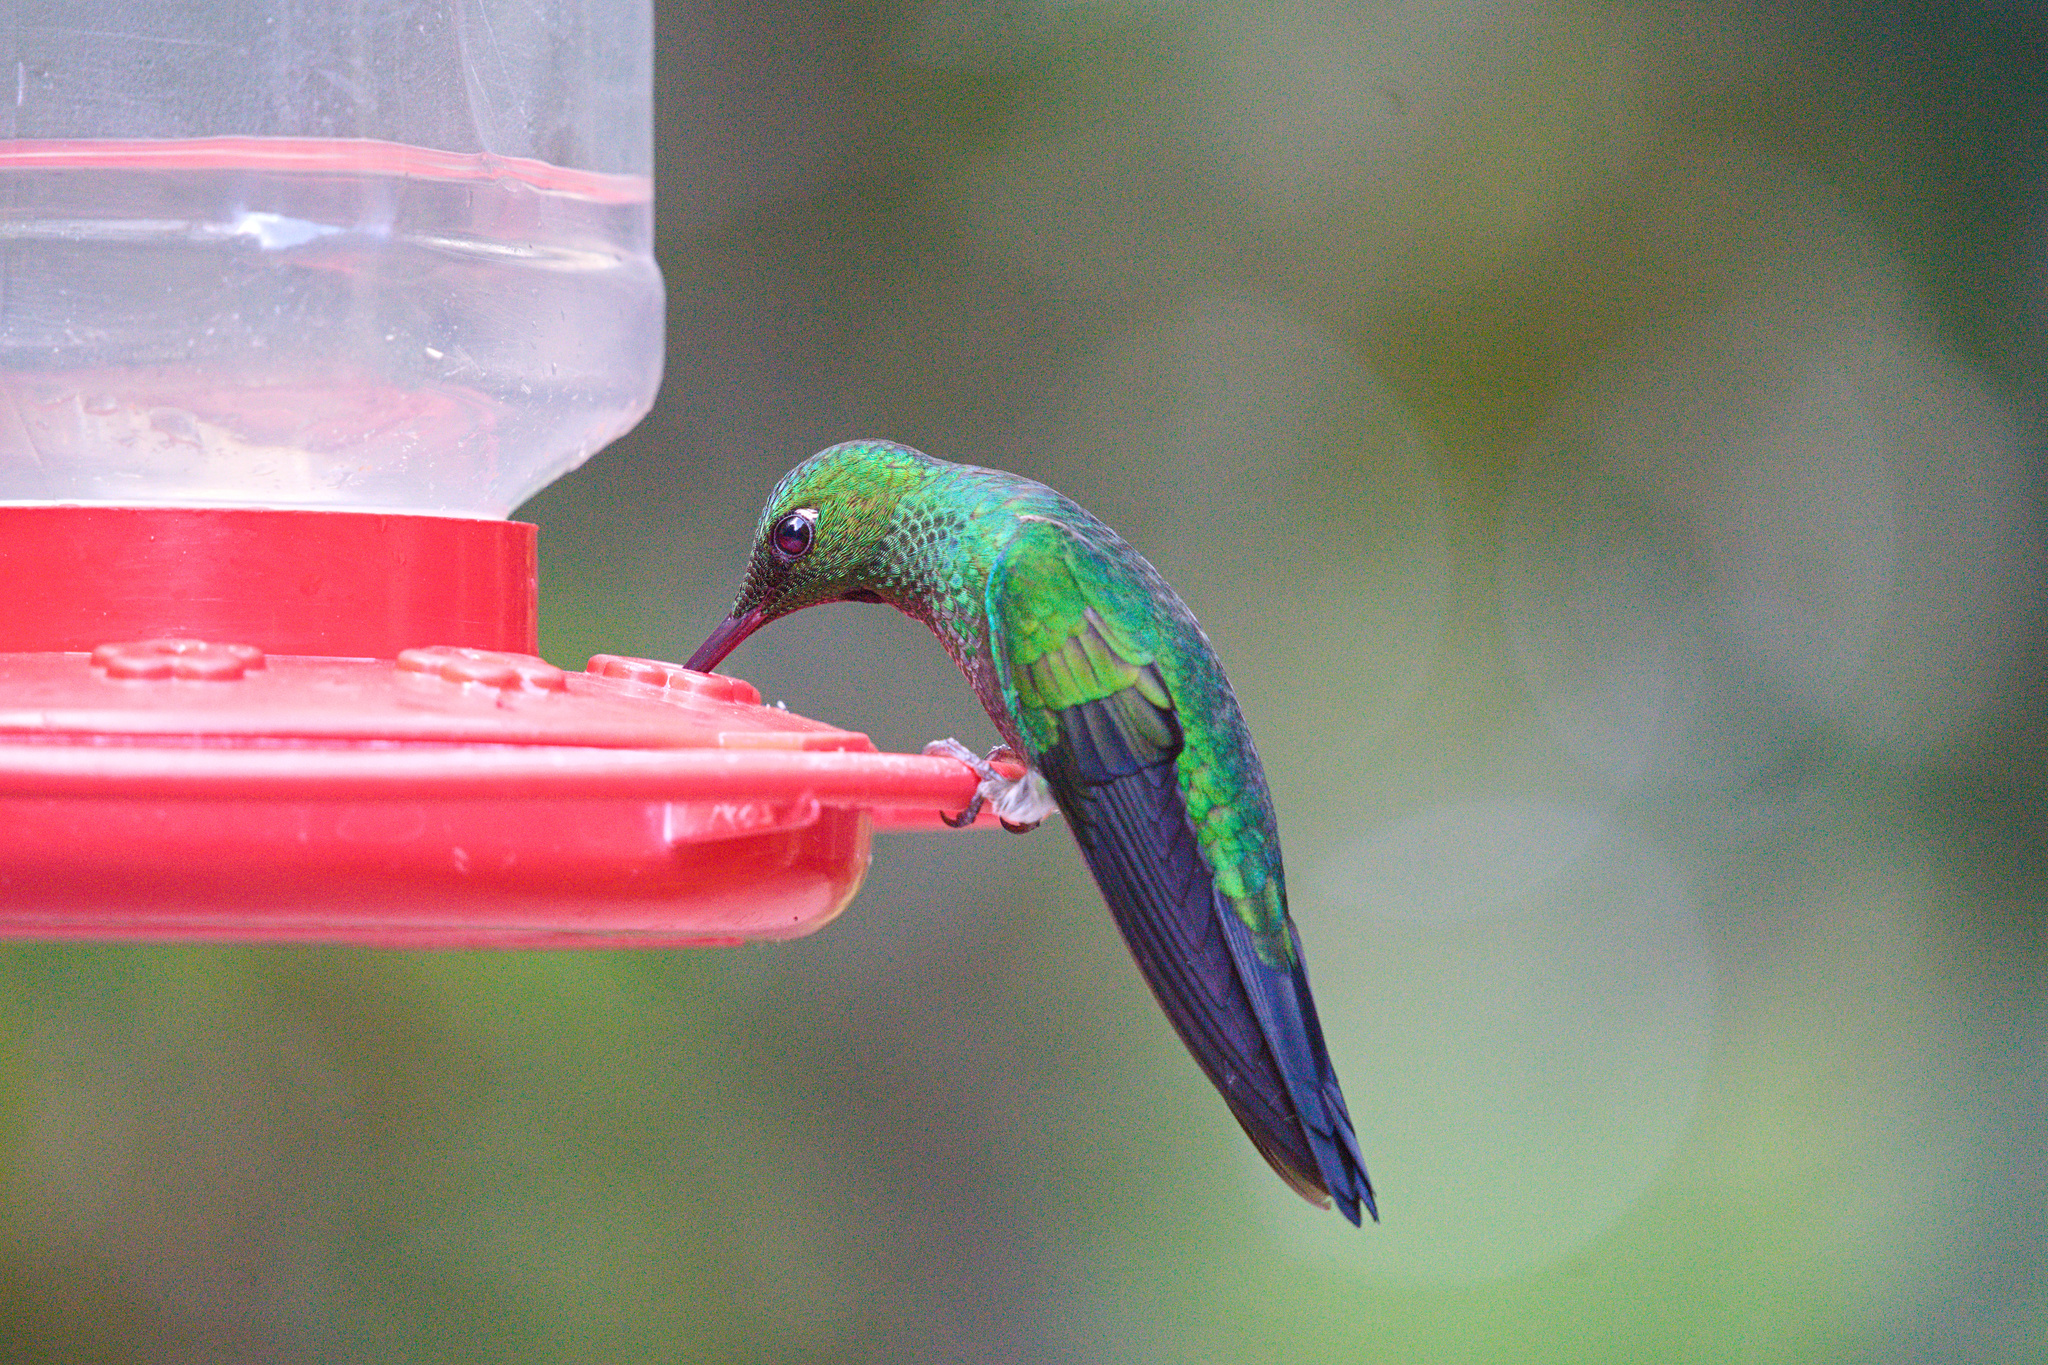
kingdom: Animalia
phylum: Chordata
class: Aves
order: Apodiformes
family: Trochilidae
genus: Heliodoxa
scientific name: Heliodoxa jacula
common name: Green-crowned brilliant
